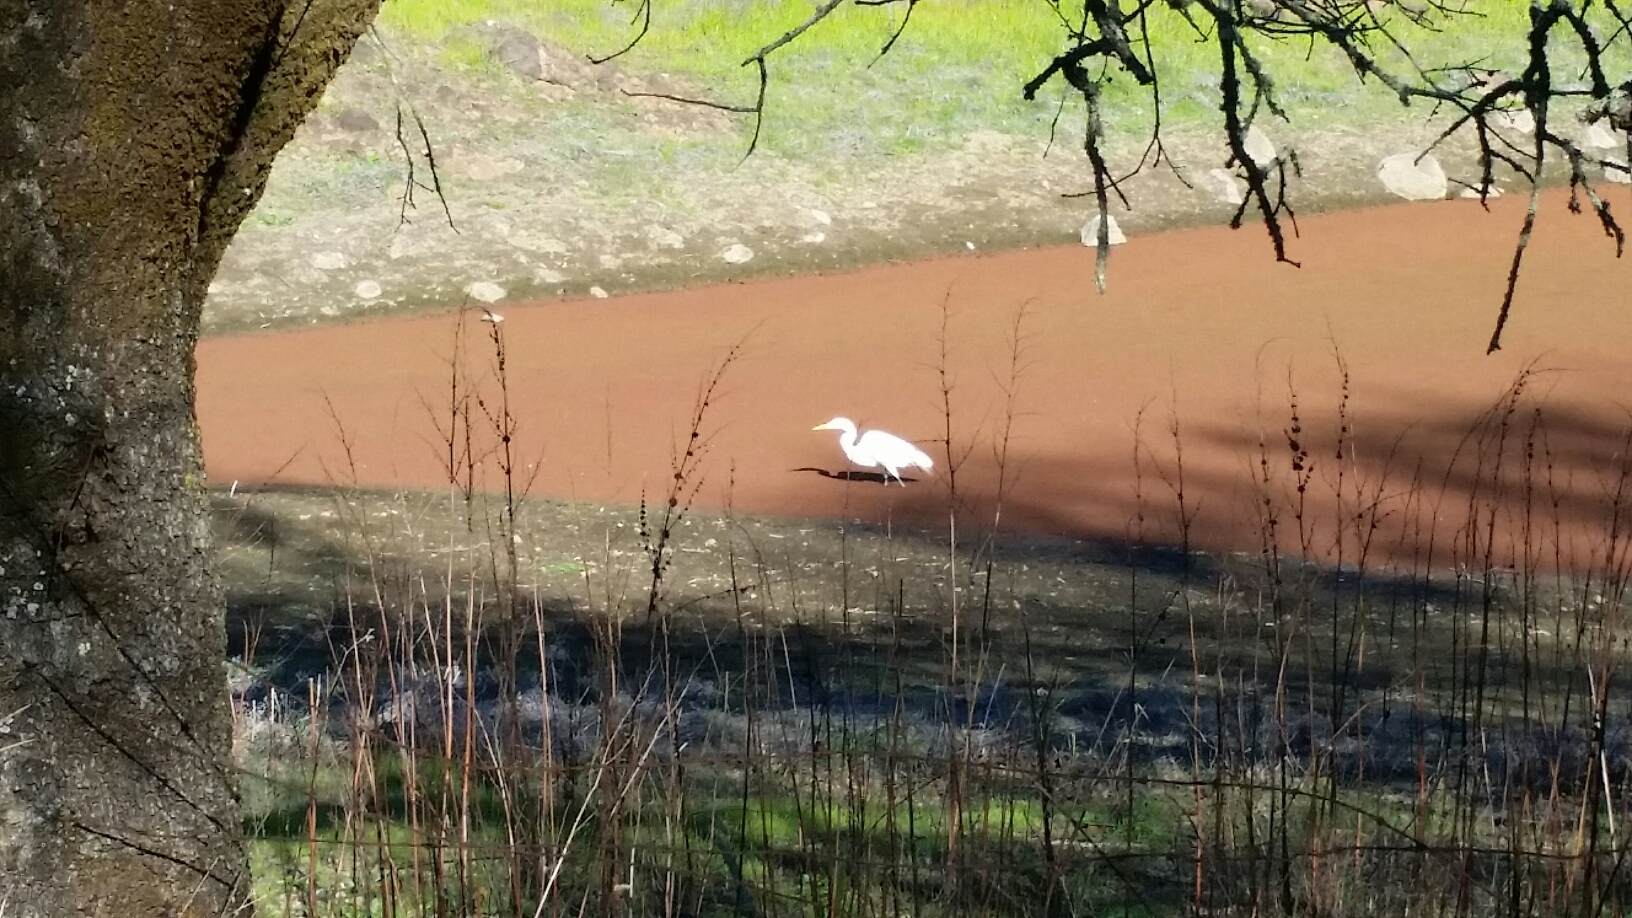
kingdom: Animalia
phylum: Chordata
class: Aves
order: Pelecaniformes
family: Ardeidae
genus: Ardea
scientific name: Ardea alba
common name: Great egret
